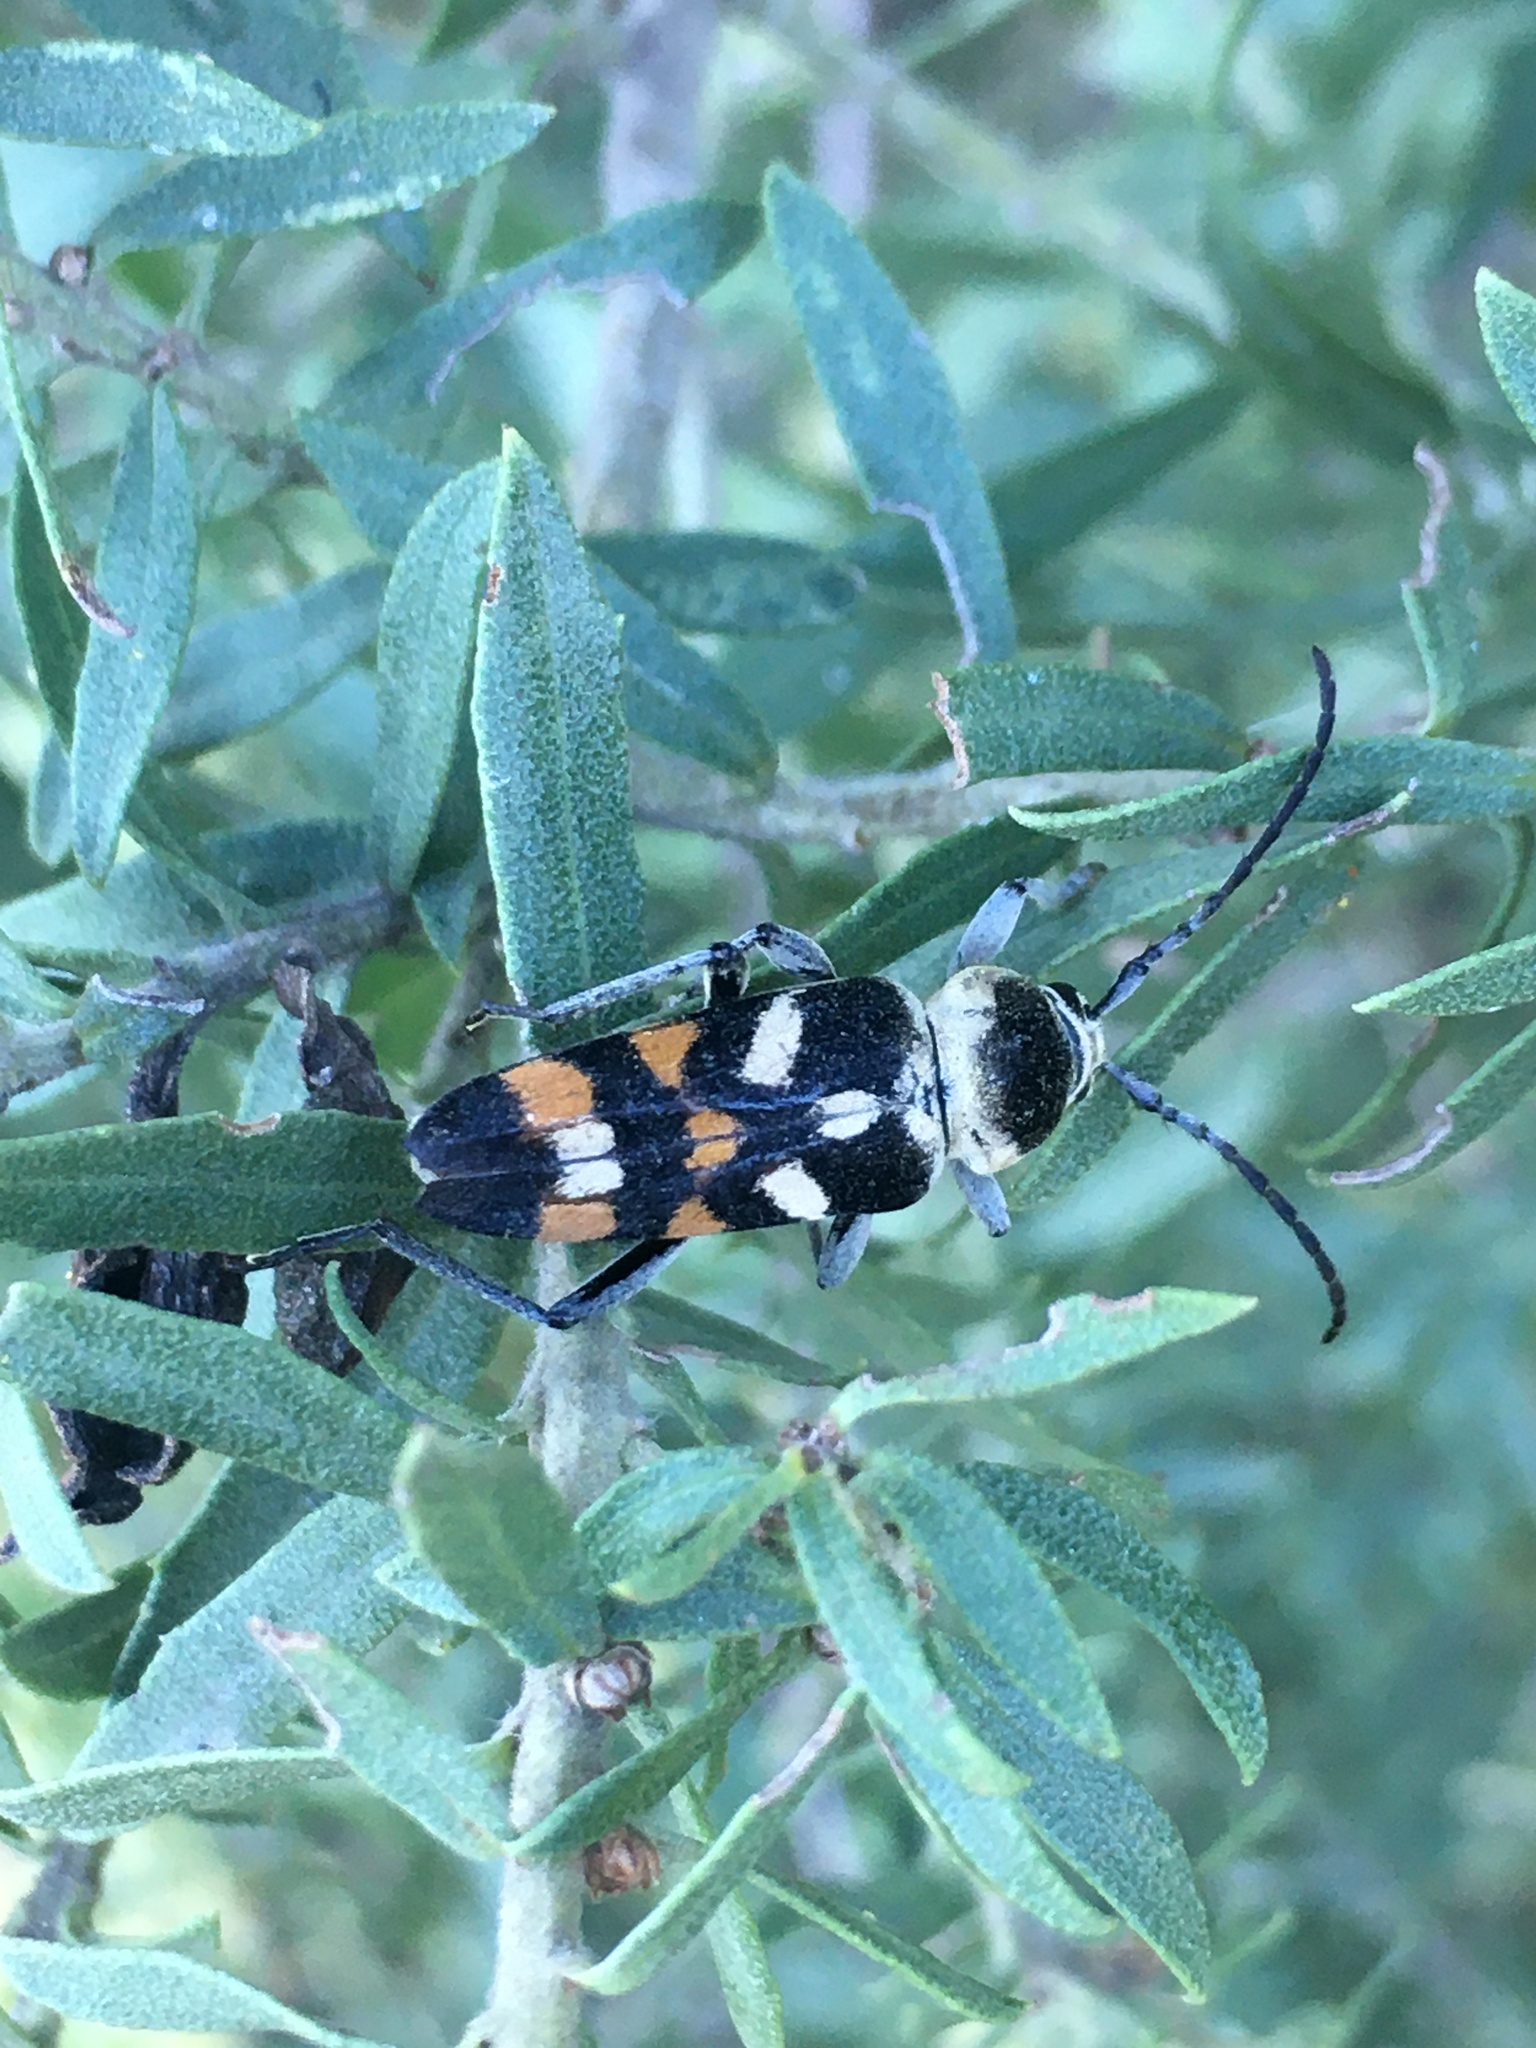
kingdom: Animalia
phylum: Arthropoda
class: Insecta
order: Coleoptera
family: Cerambycidae
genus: Megacyllene
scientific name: Megacyllene mellyi
